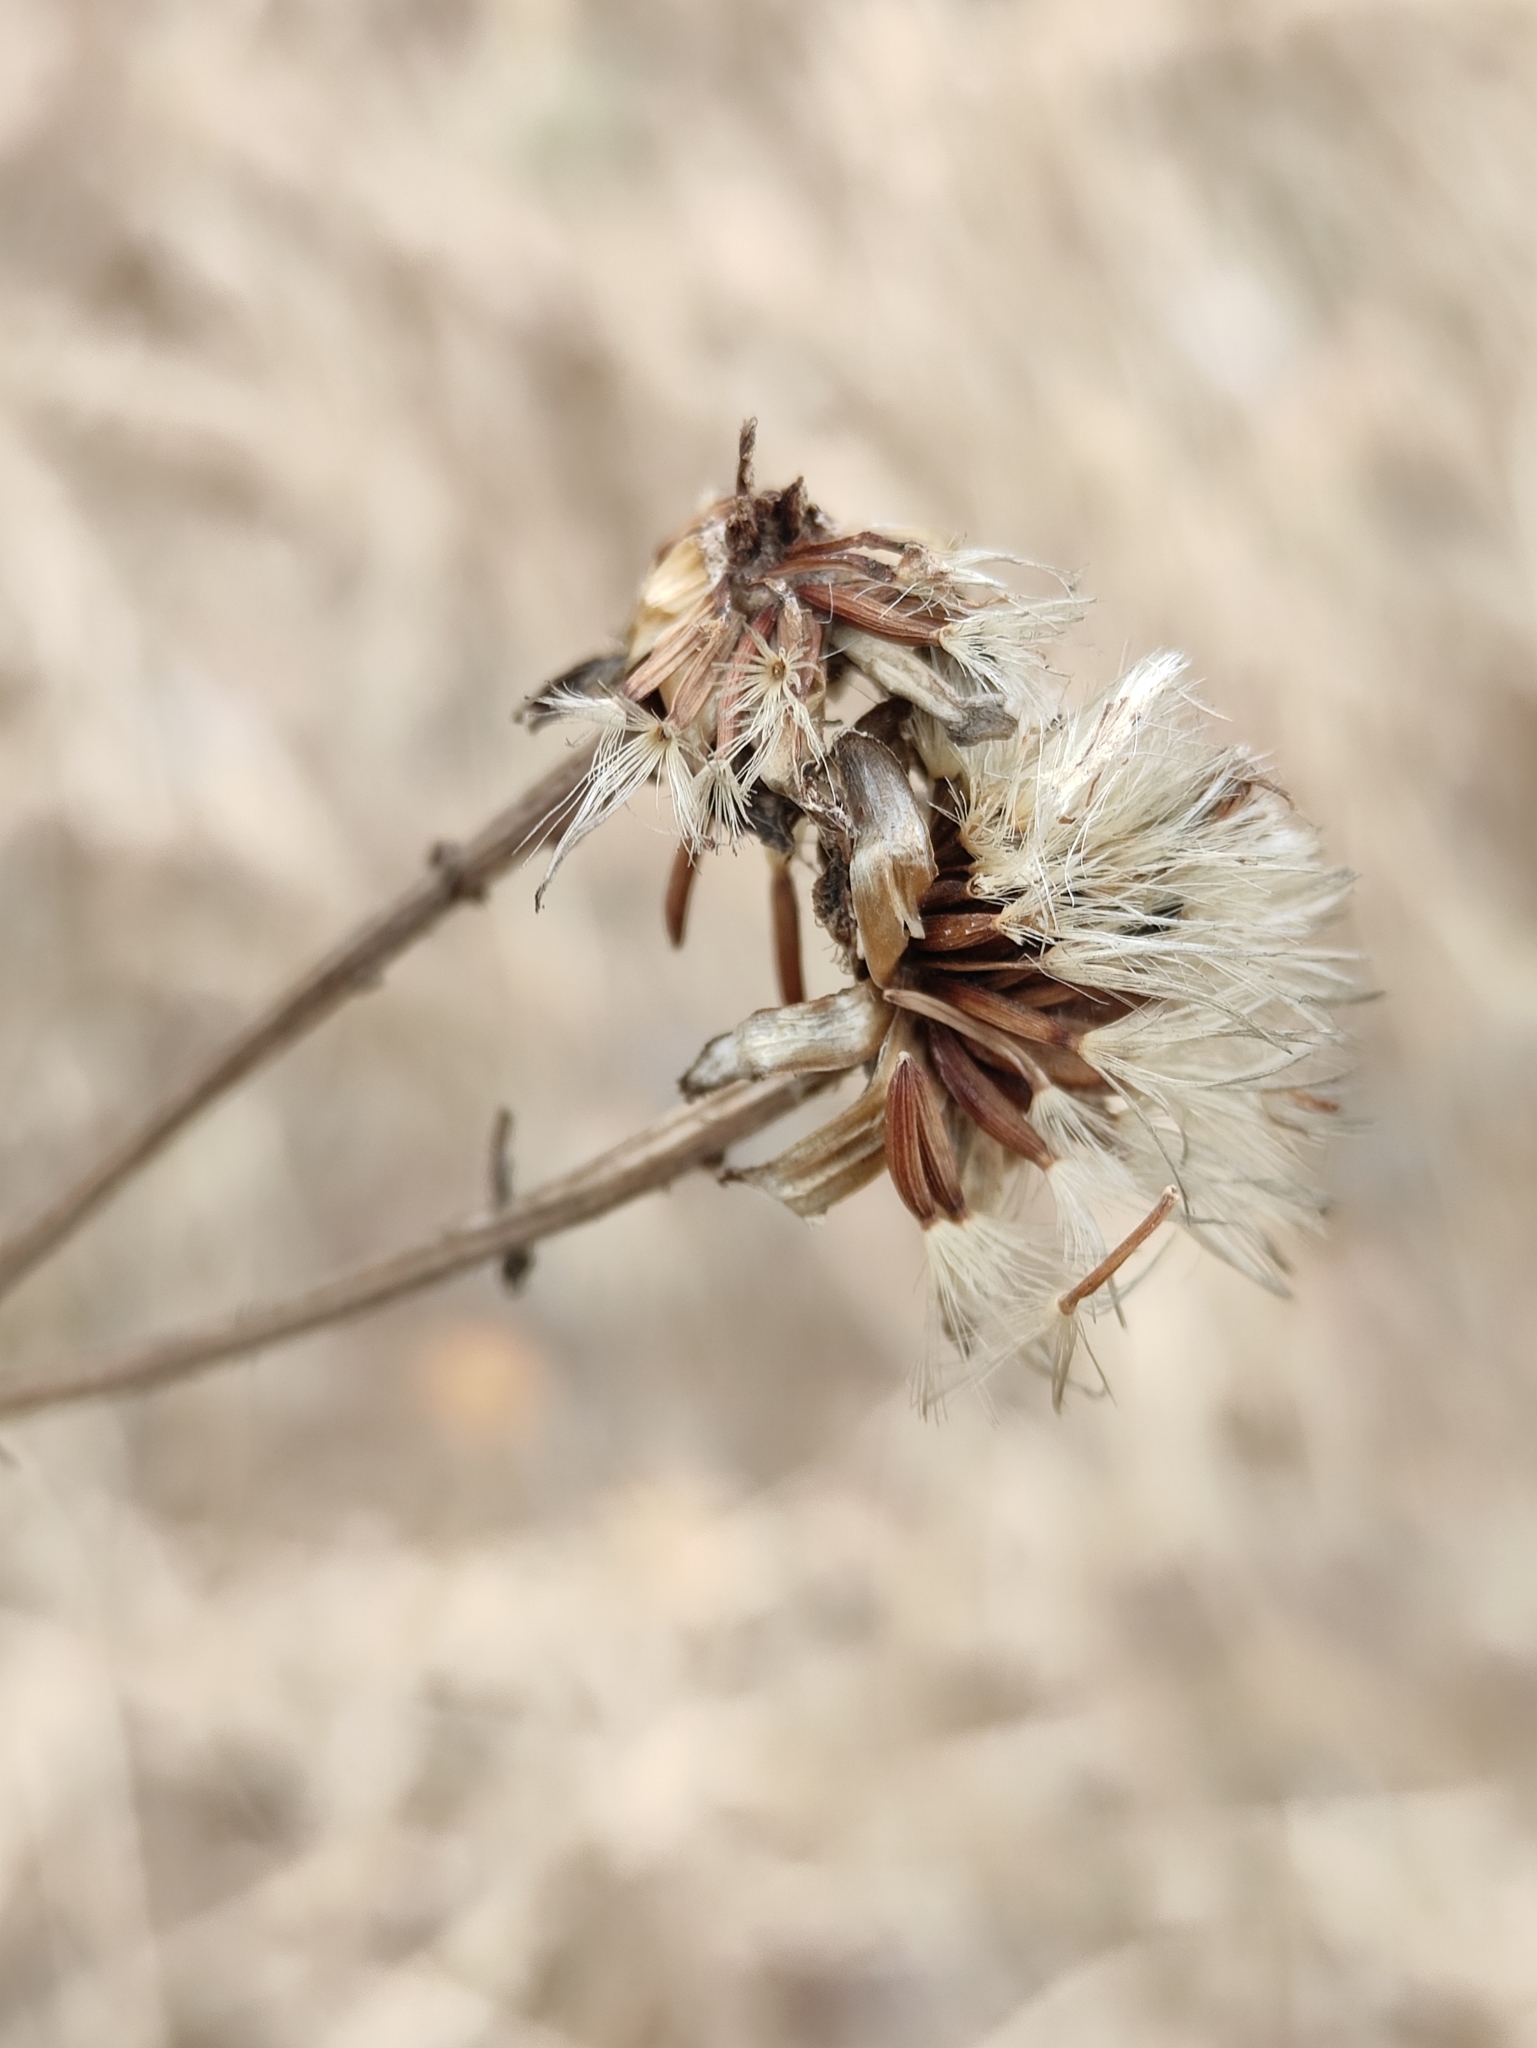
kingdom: Plantae
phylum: Tracheophyta
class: Magnoliopsida
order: Asterales
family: Asteraceae
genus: Crepis
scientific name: Crepis sibirica
